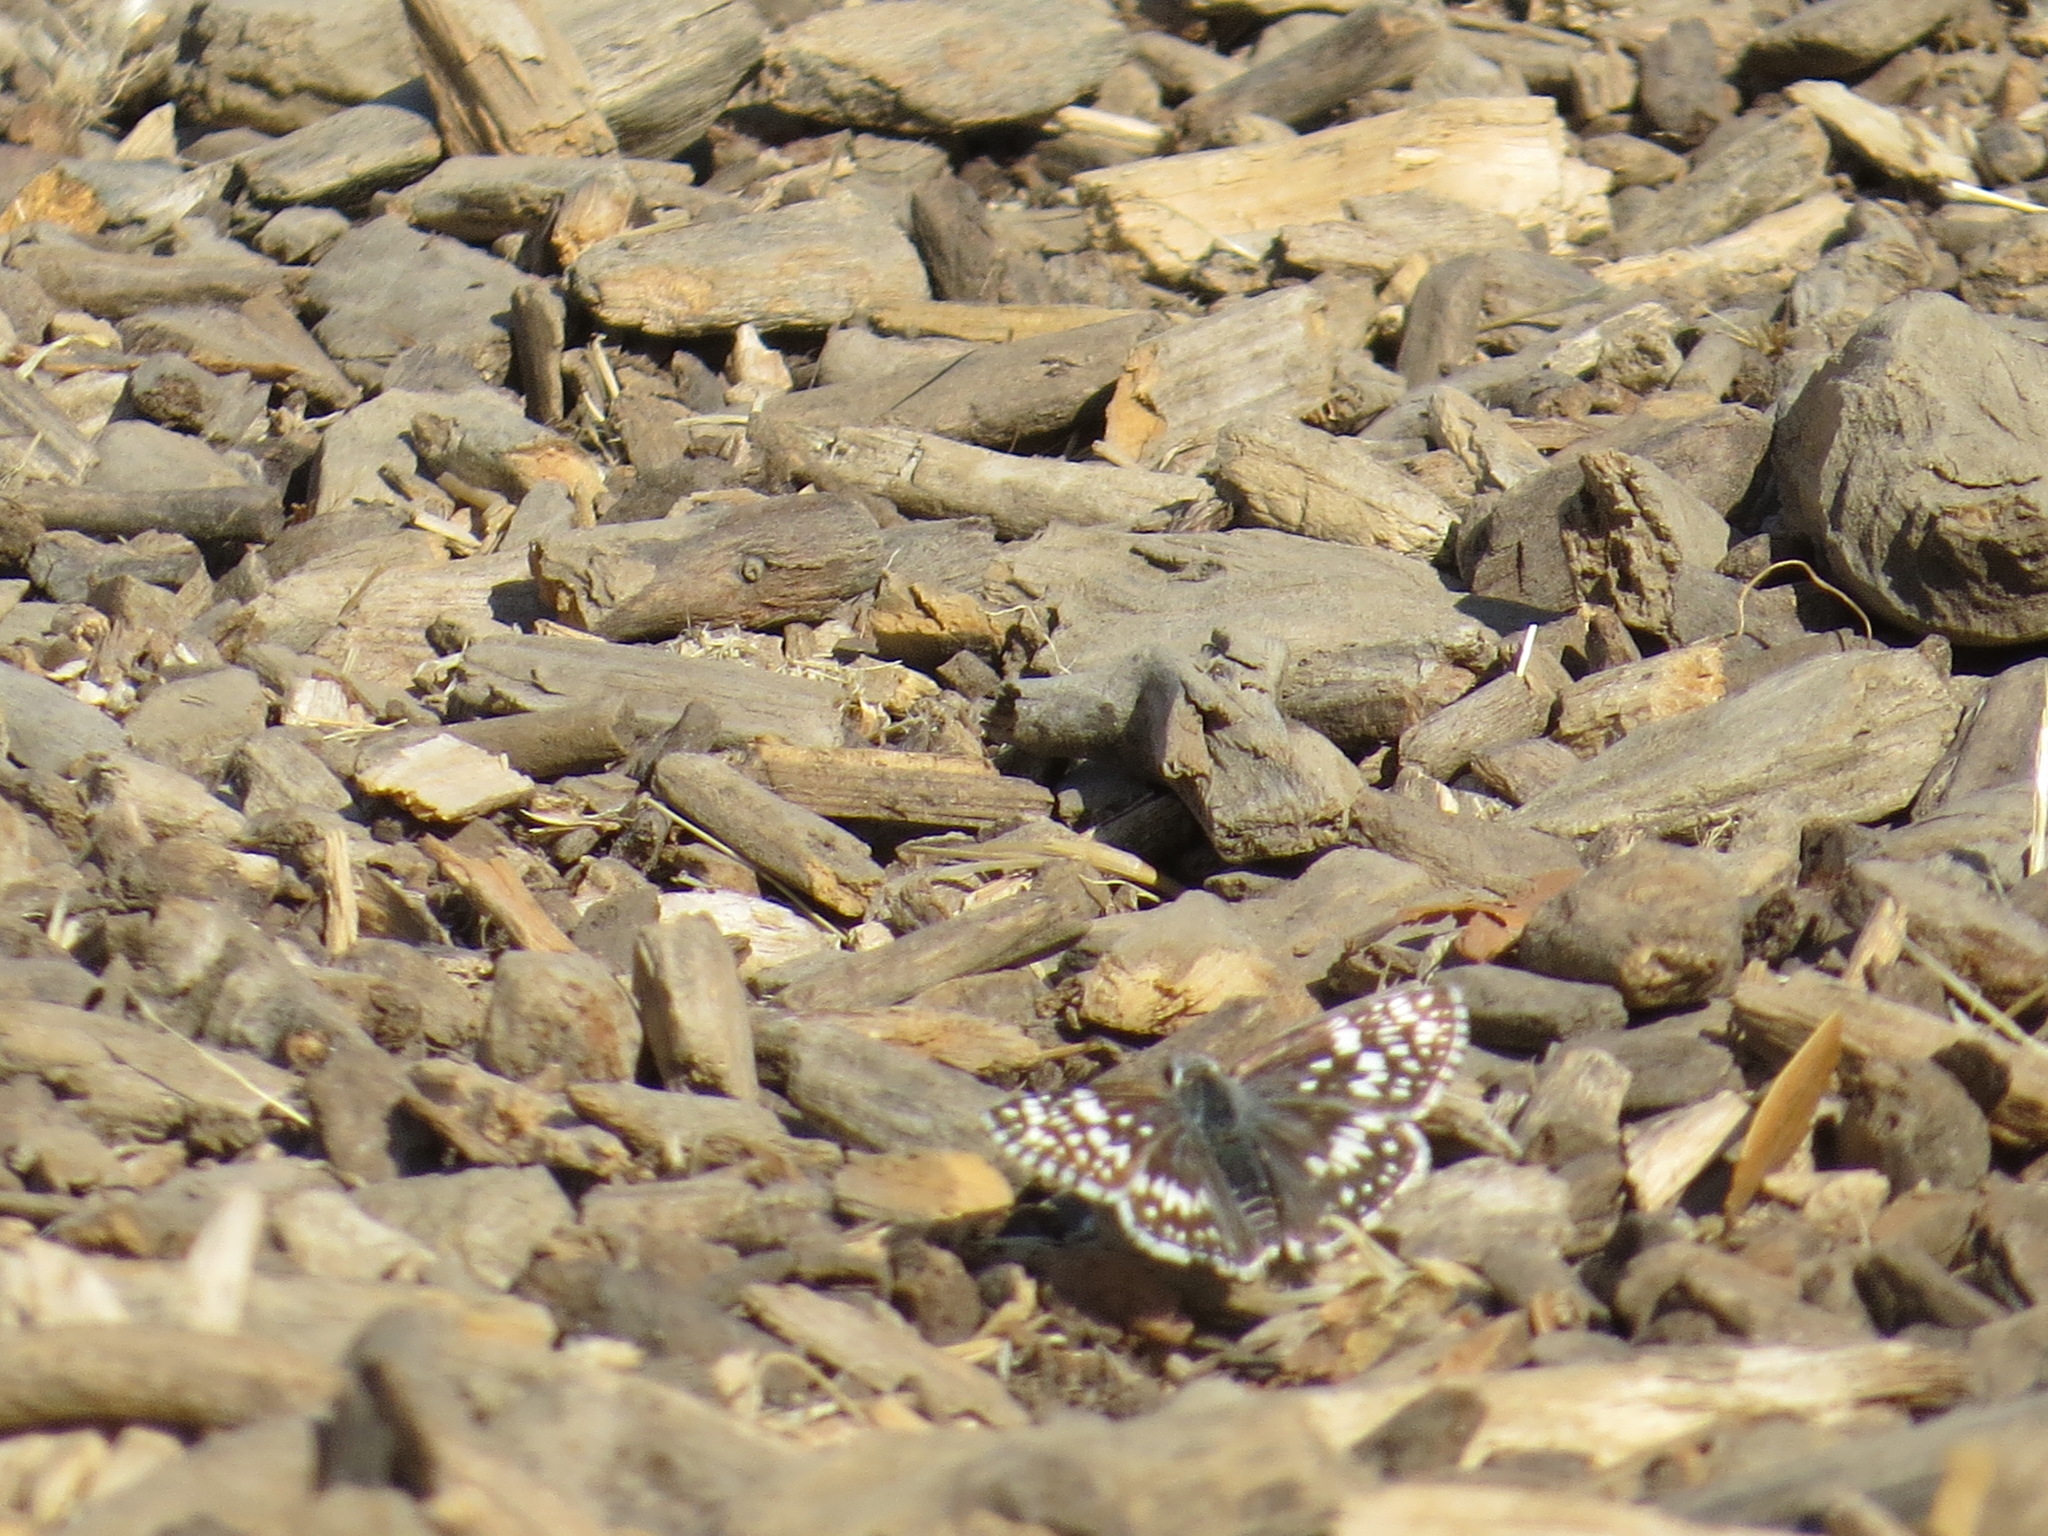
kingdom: Animalia
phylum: Arthropoda
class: Insecta
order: Lepidoptera
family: Hesperiidae
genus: Burnsius
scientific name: Burnsius communis
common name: Common checkered-skipper
